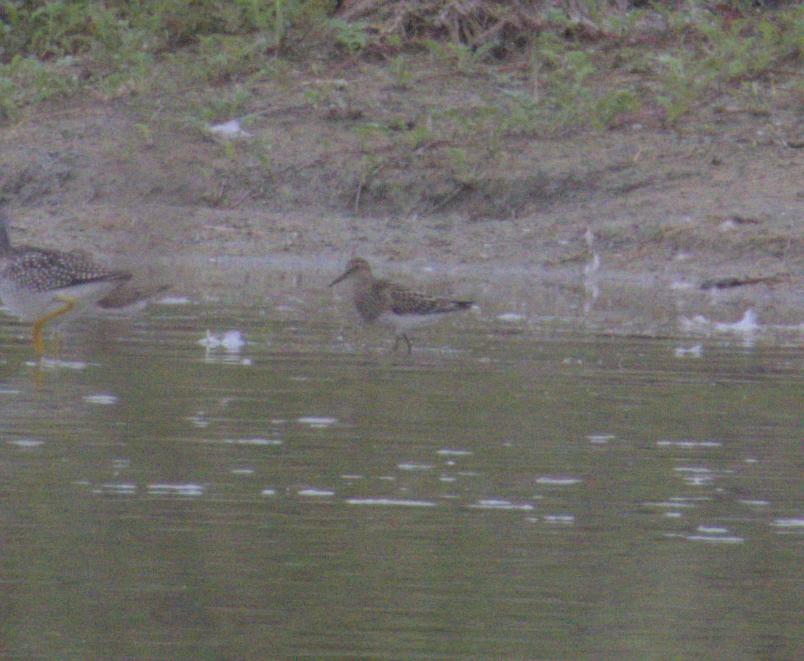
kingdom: Animalia
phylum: Chordata
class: Aves
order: Charadriiformes
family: Scolopacidae
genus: Calidris
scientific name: Calidris melanotos
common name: Pectoral sandpiper
